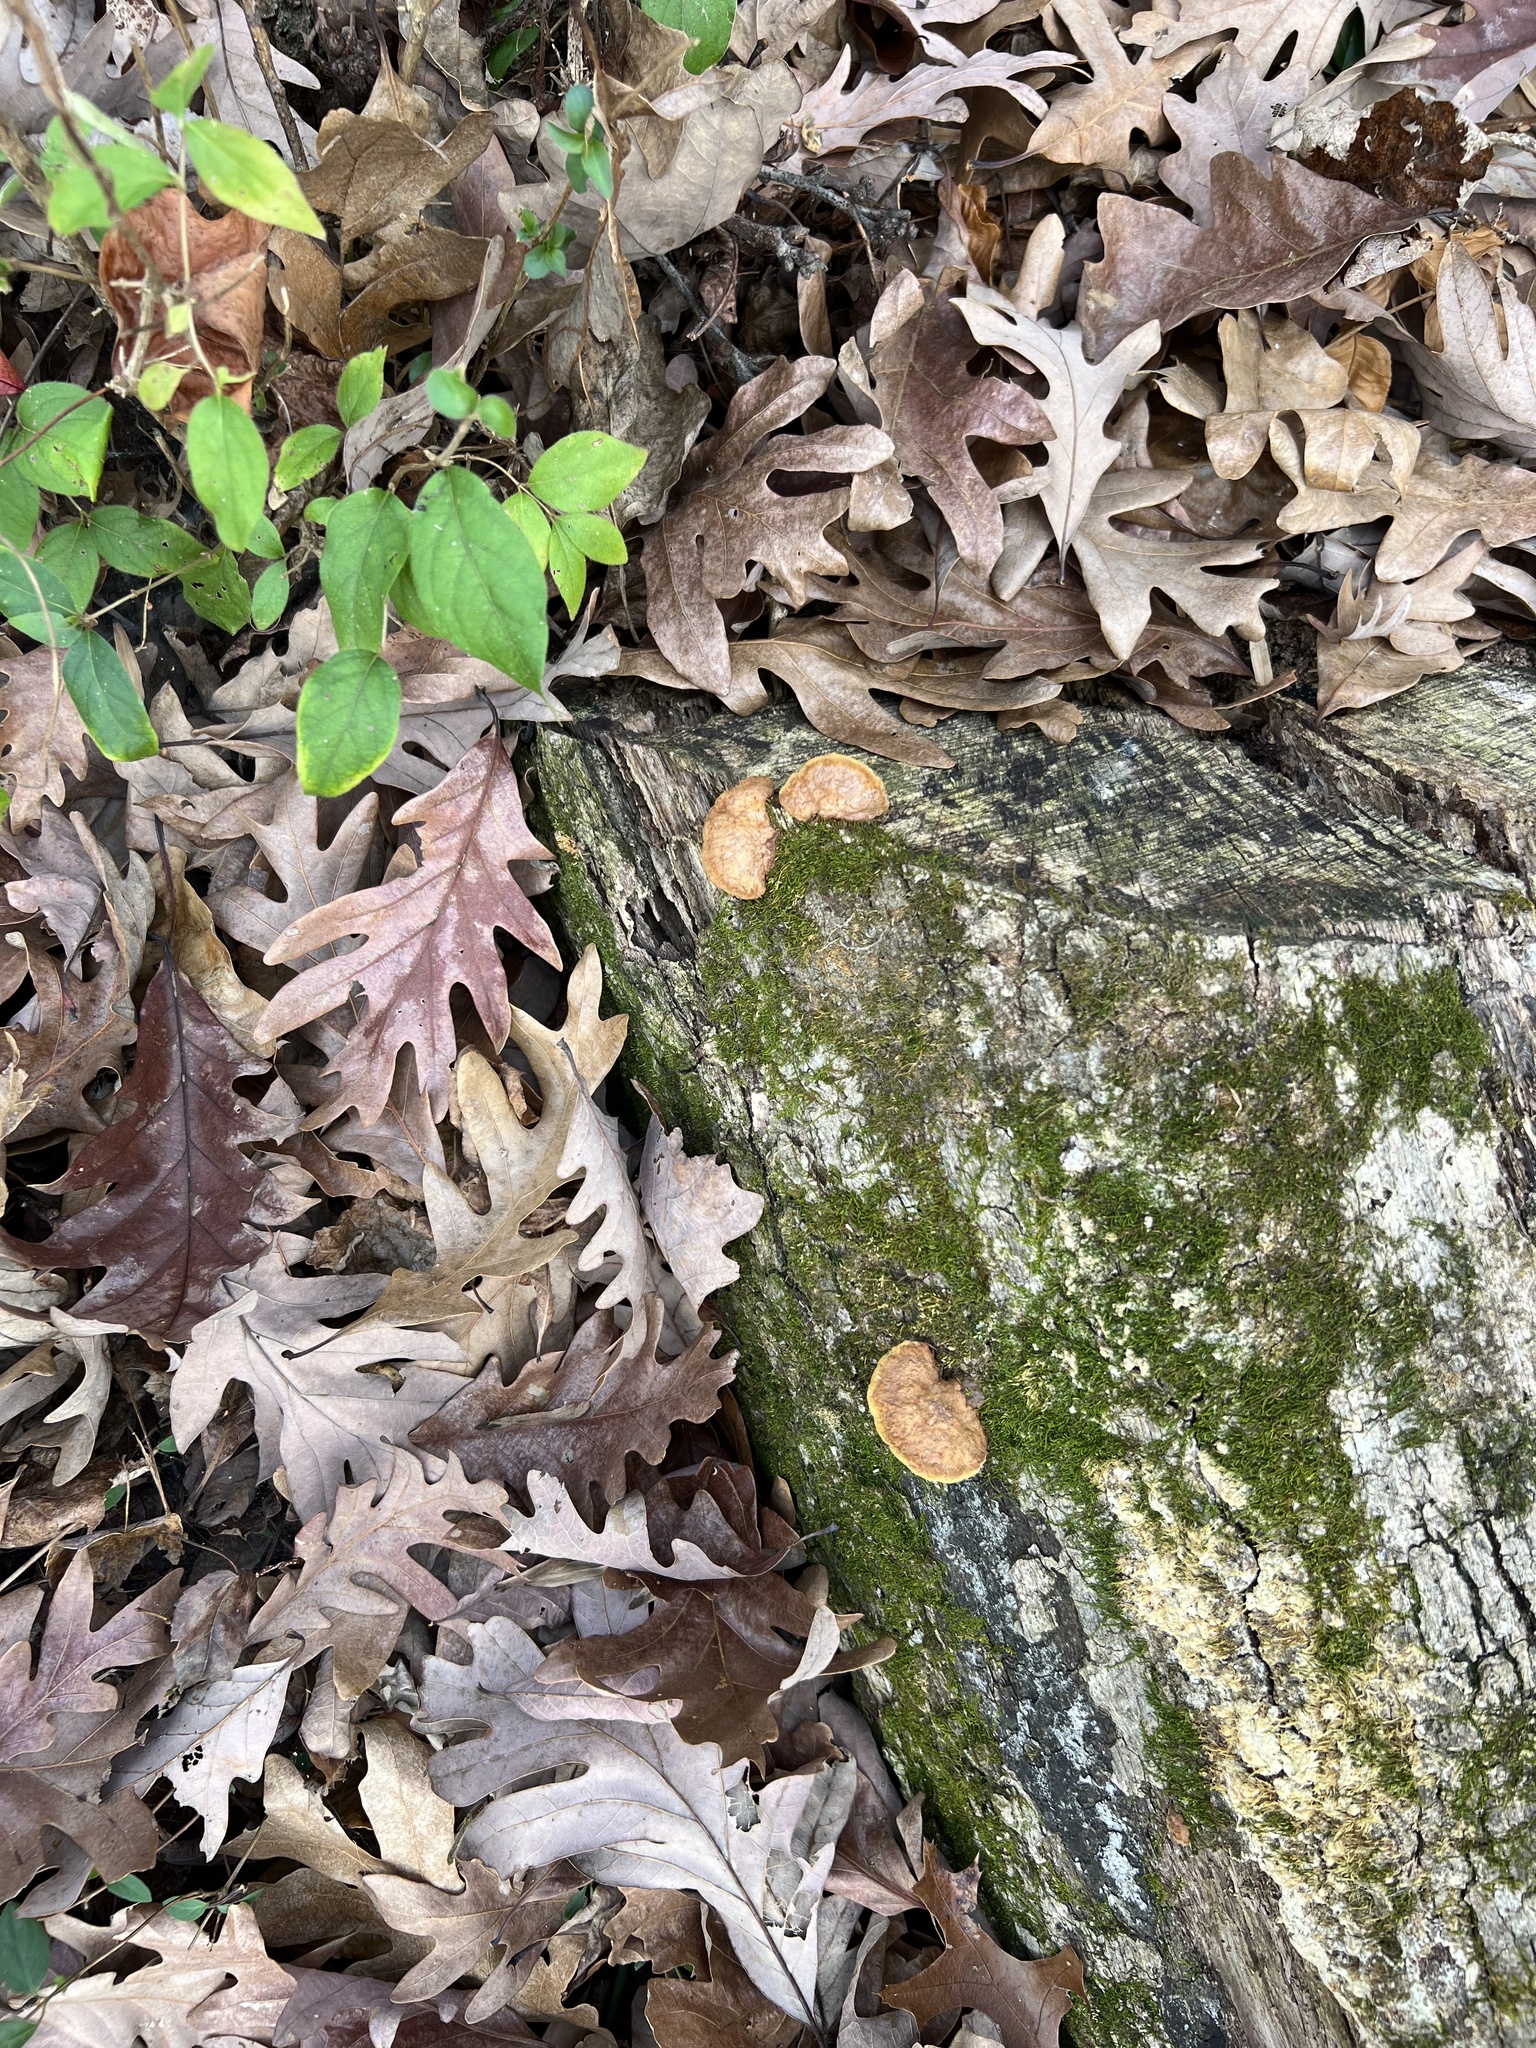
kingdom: Fungi
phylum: Basidiomycota
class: Agaricomycetes
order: Hymenochaetales
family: Hymenochaetaceae
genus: Phellinus
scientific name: Phellinus gilvus
